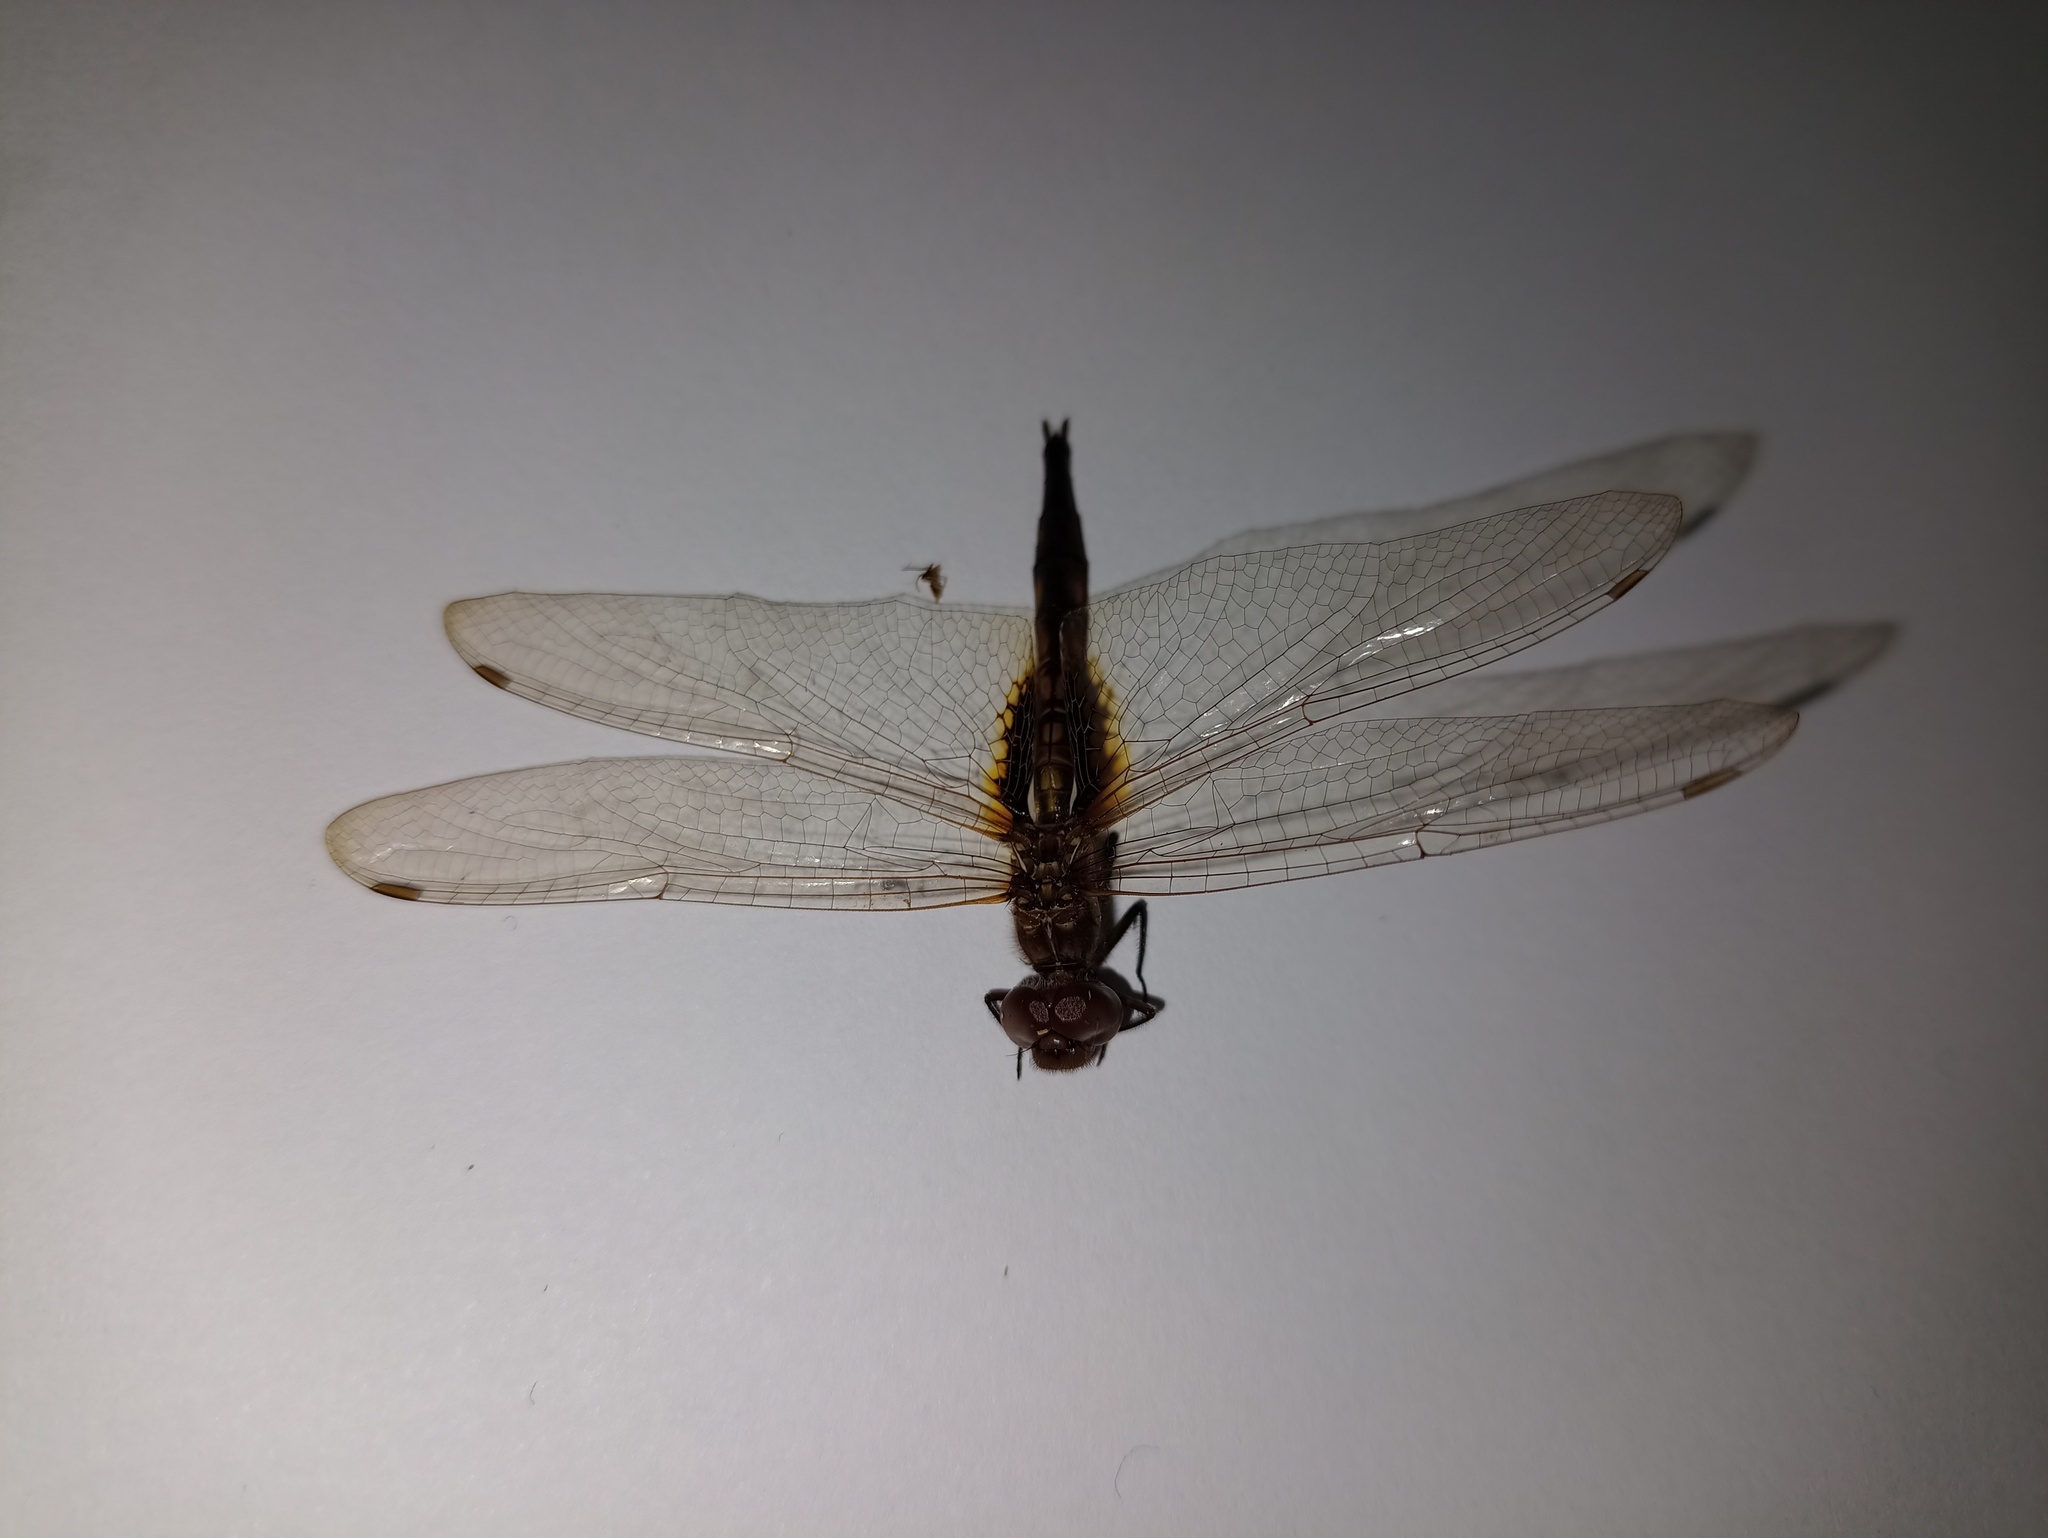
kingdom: Animalia
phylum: Arthropoda
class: Insecta
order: Odonata
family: Libellulidae
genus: Miathyria
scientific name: Miathyria marcella
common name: Hyacinth glider
